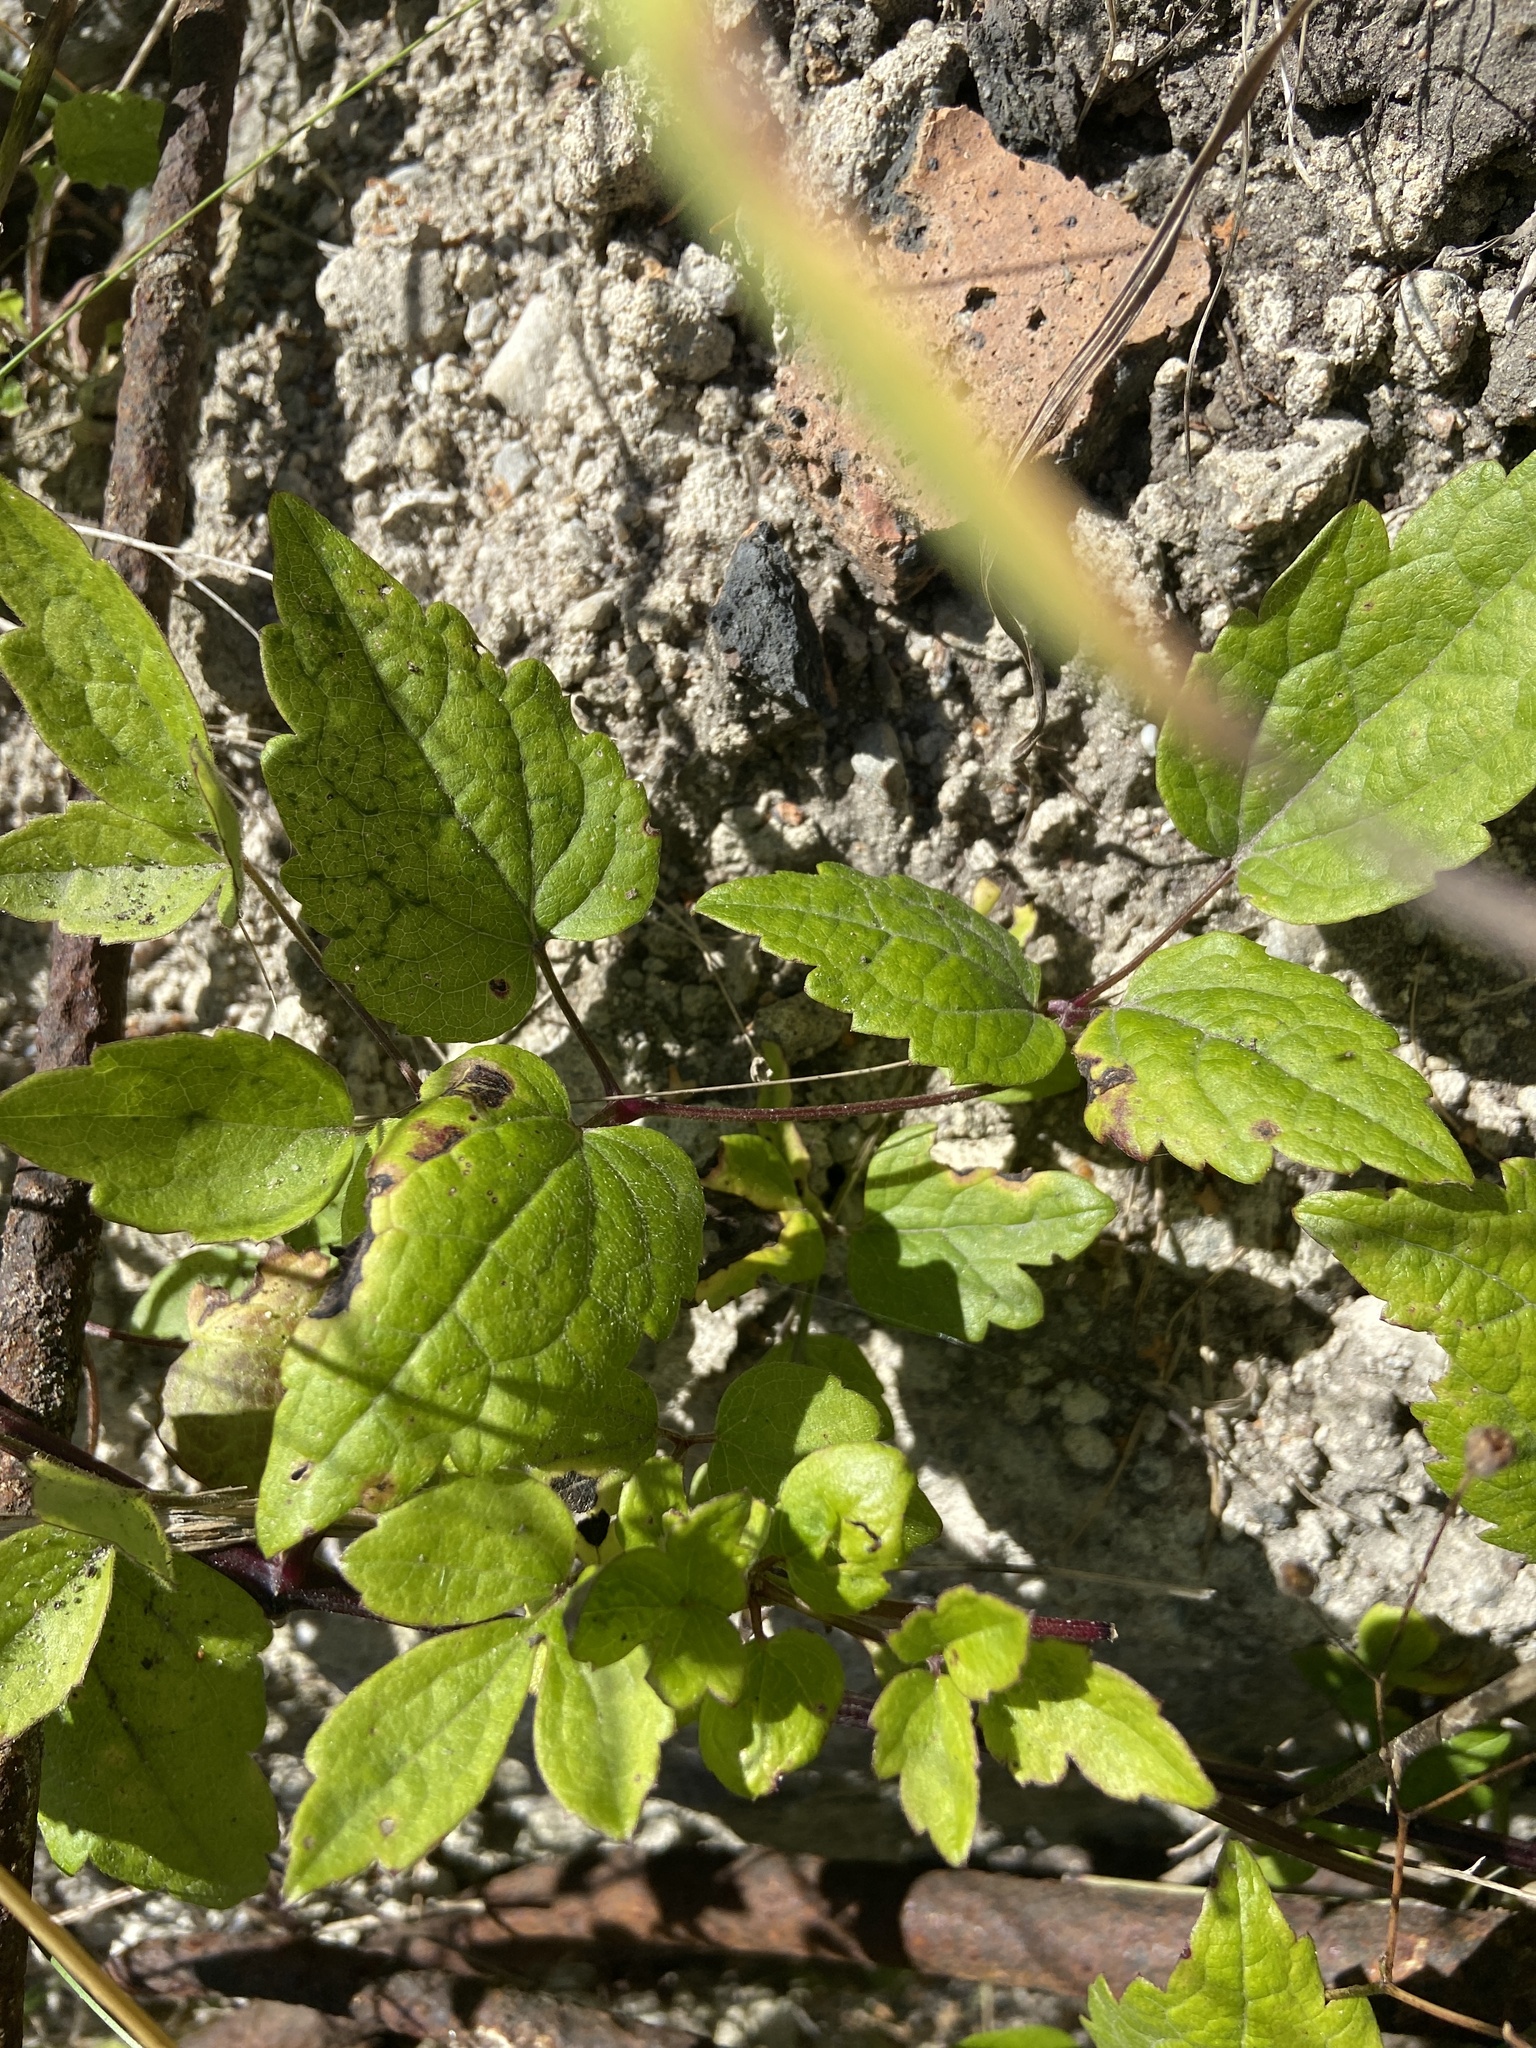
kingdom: Plantae
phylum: Tracheophyta
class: Magnoliopsida
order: Ranunculales
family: Ranunculaceae
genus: Clematis
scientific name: Clematis vitalba
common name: Evergreen clematis
